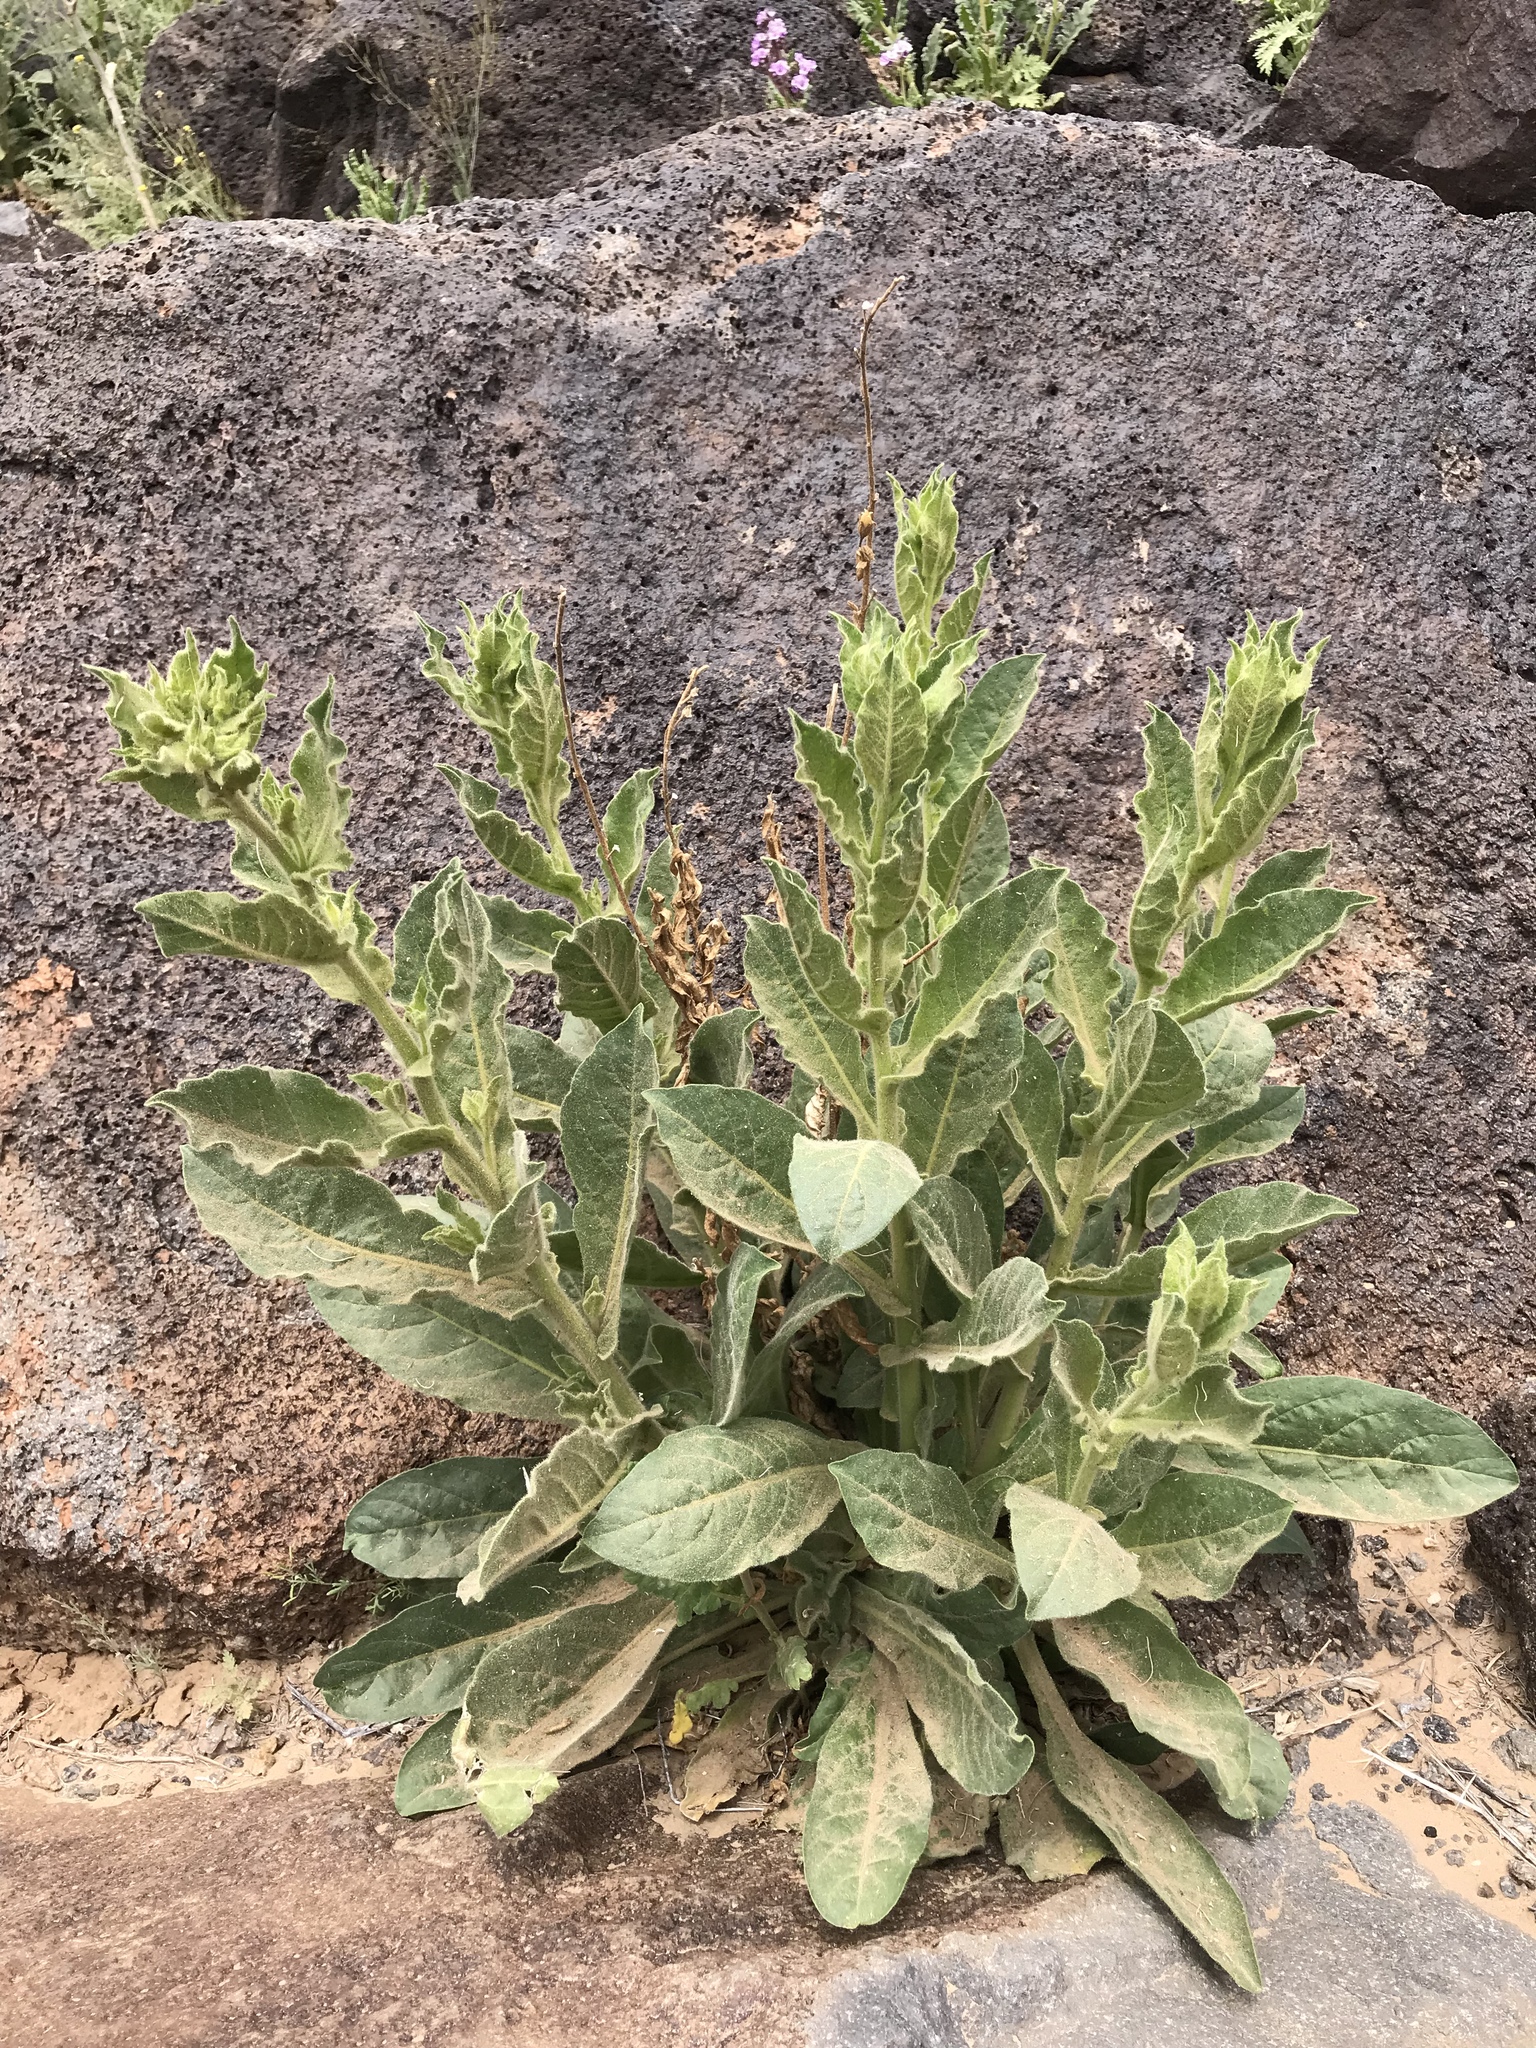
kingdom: Plantae
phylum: Tracheophyta
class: Magnoliopsida
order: Lamiales
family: Scrophulariaceae
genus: Verbascum
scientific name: Verbascum thapsus
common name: Common mullein
